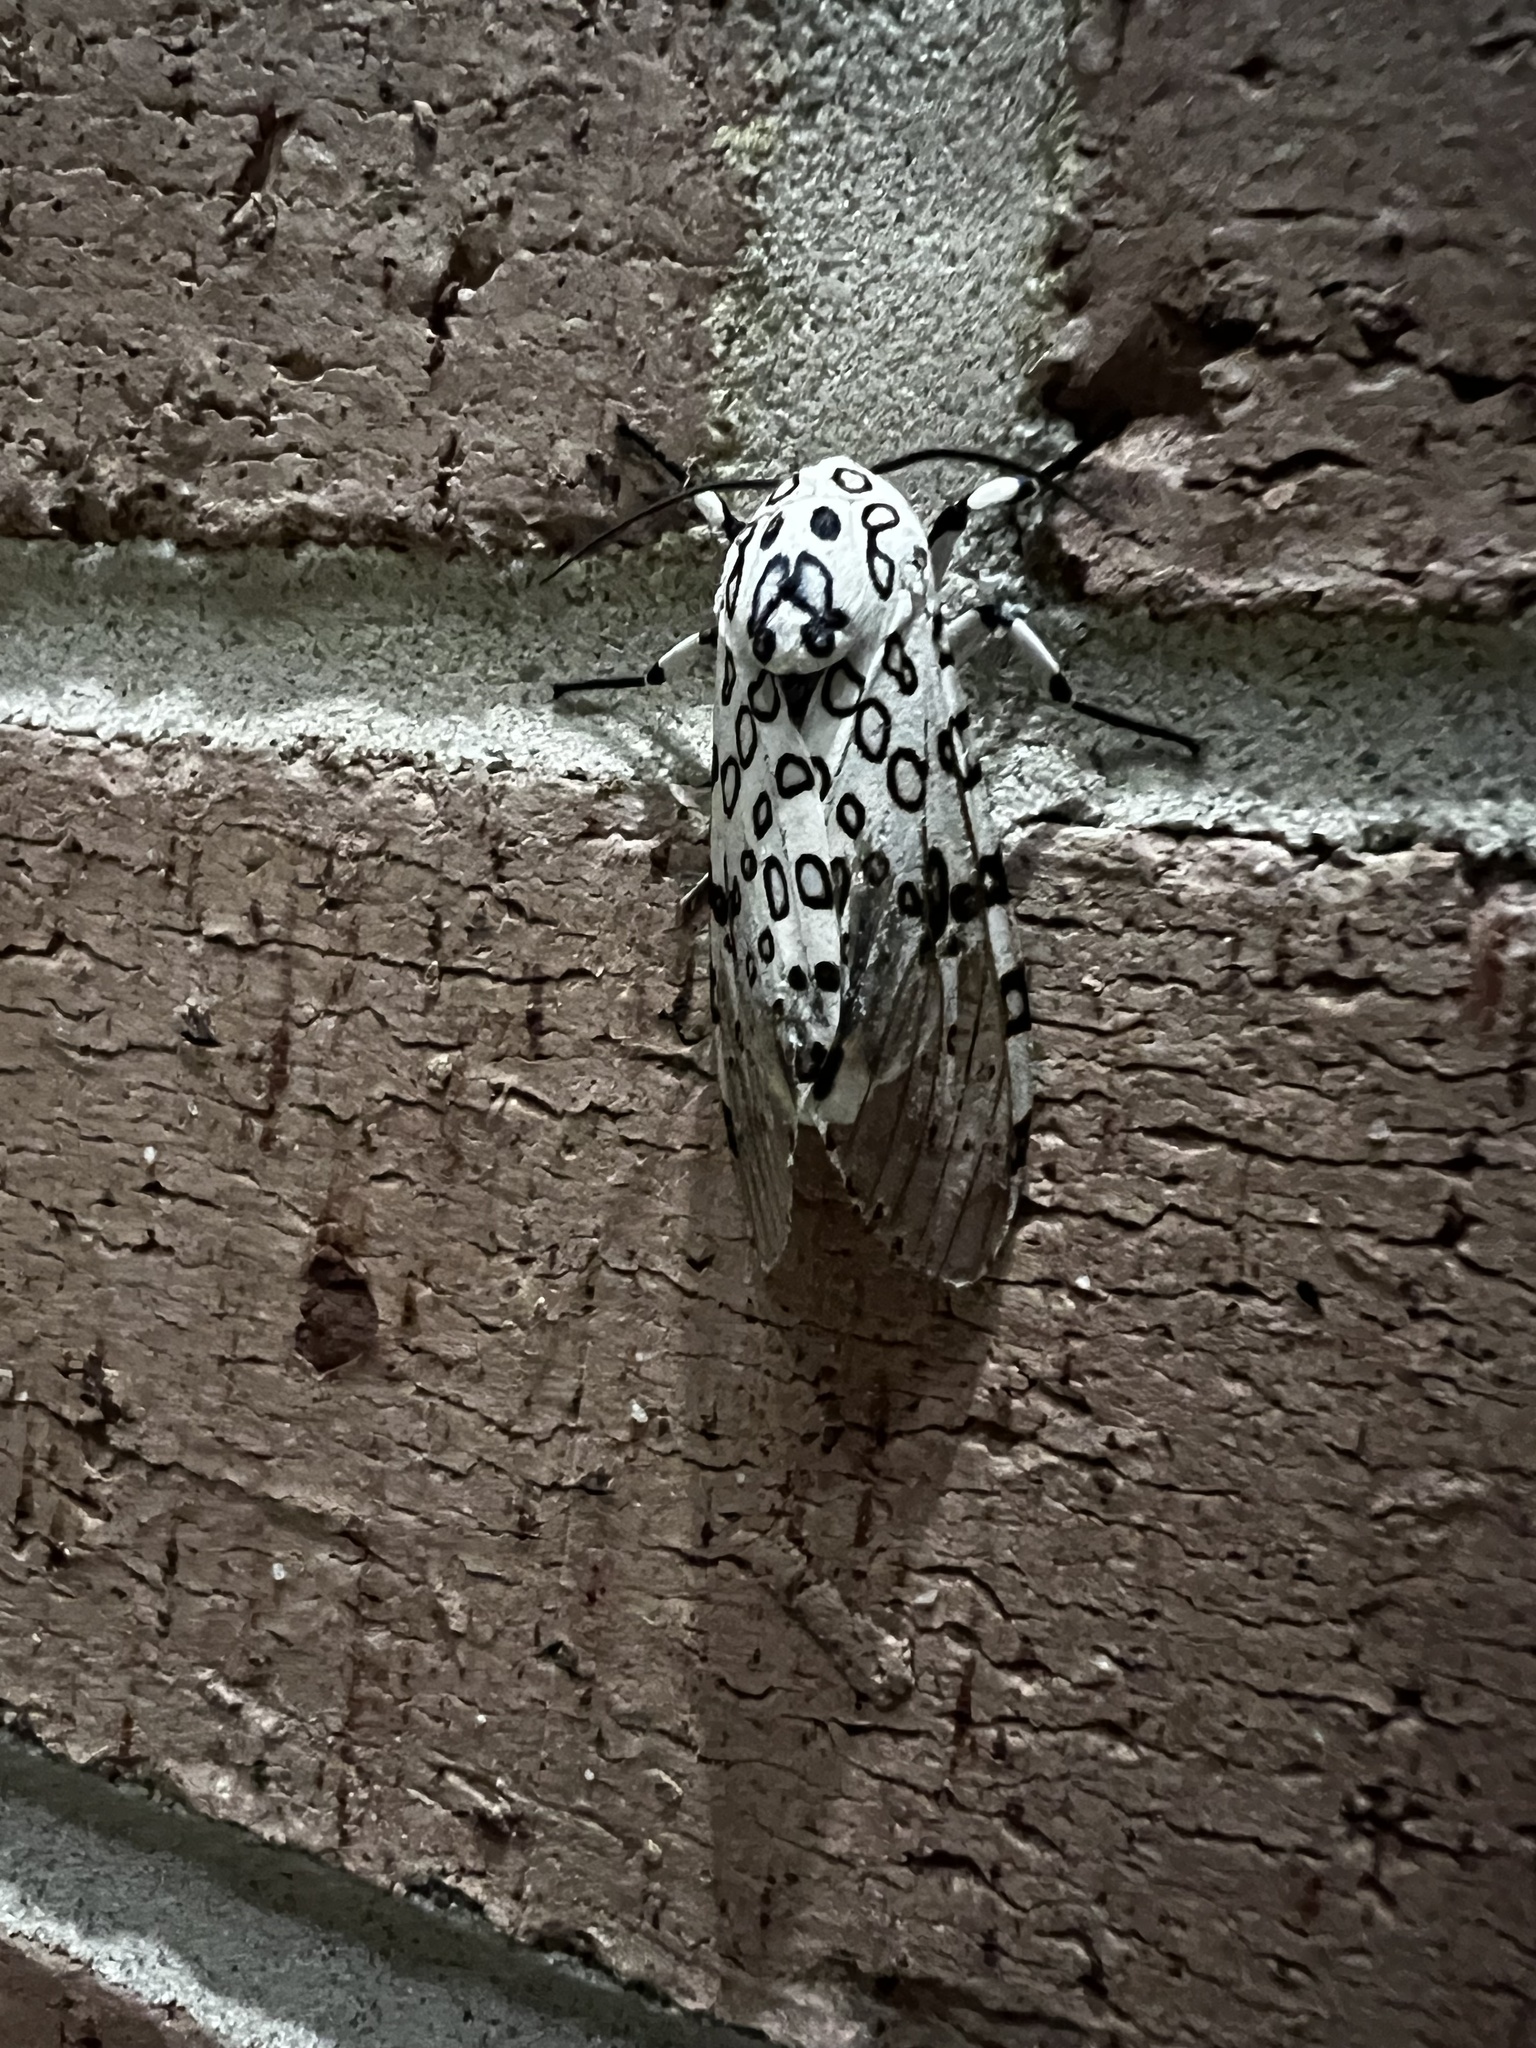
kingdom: Animalia
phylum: Arthropoda
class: Insecta
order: Lepidoptera
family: Erebidae
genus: Hypercompe
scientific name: Hypercompe scribonia
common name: Giant leopard moth
